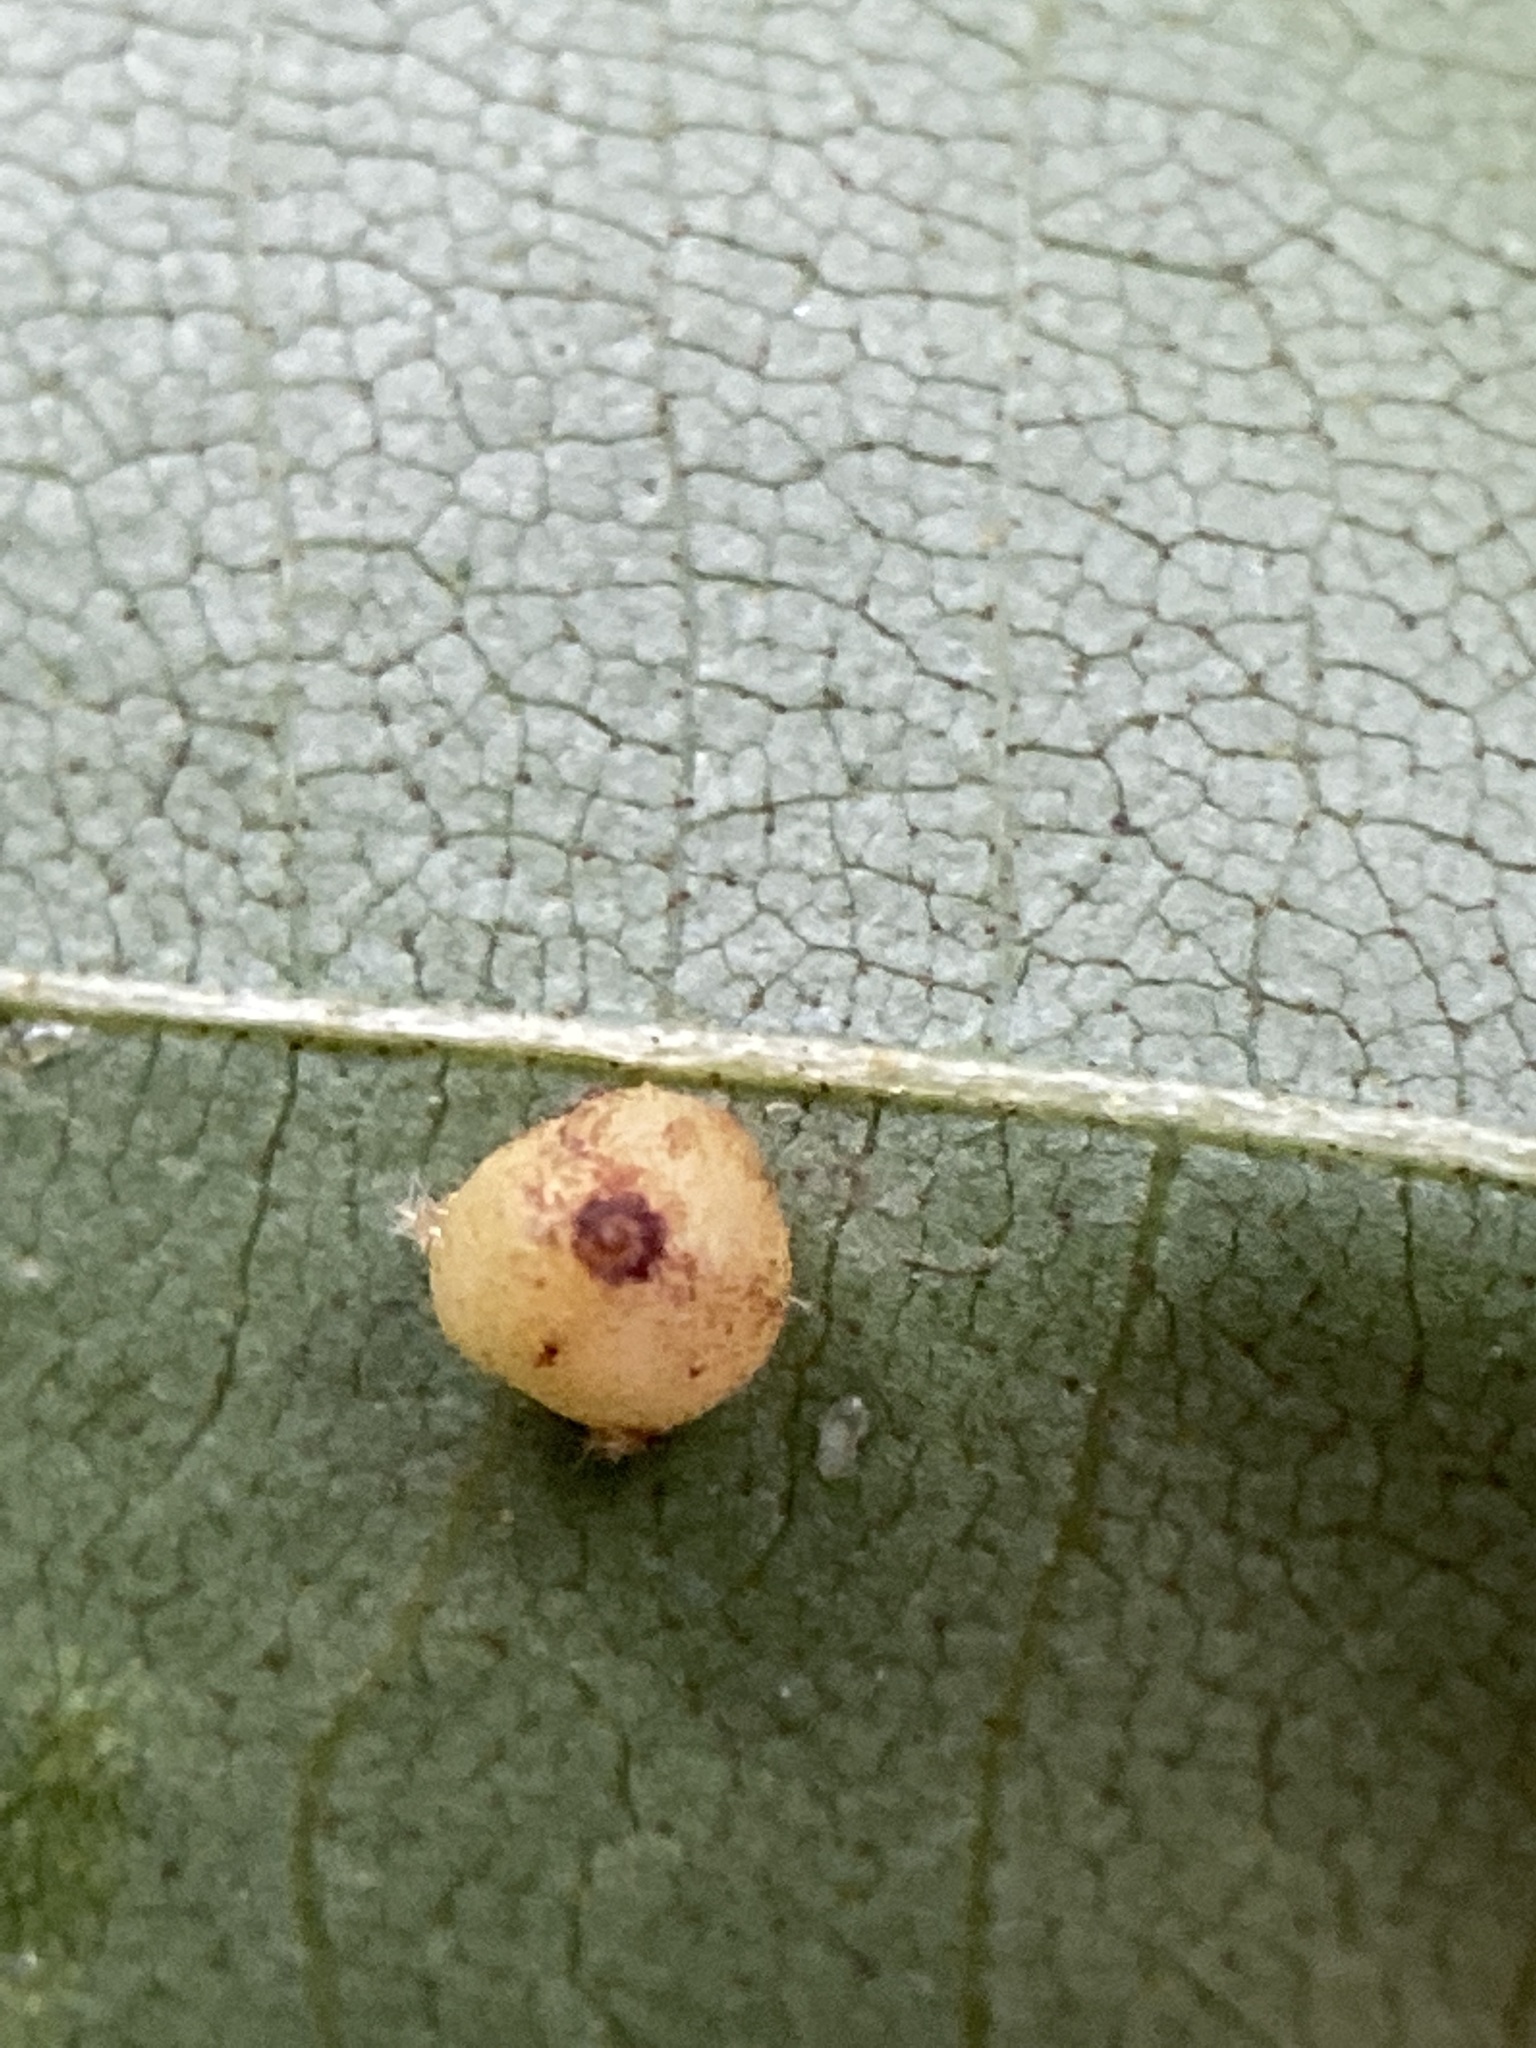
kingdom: Animalia
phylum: Arthropoda
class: Insecta
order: Diptera
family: Cecidomyiidae
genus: Caryomyia
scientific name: Caryomyia caryae
